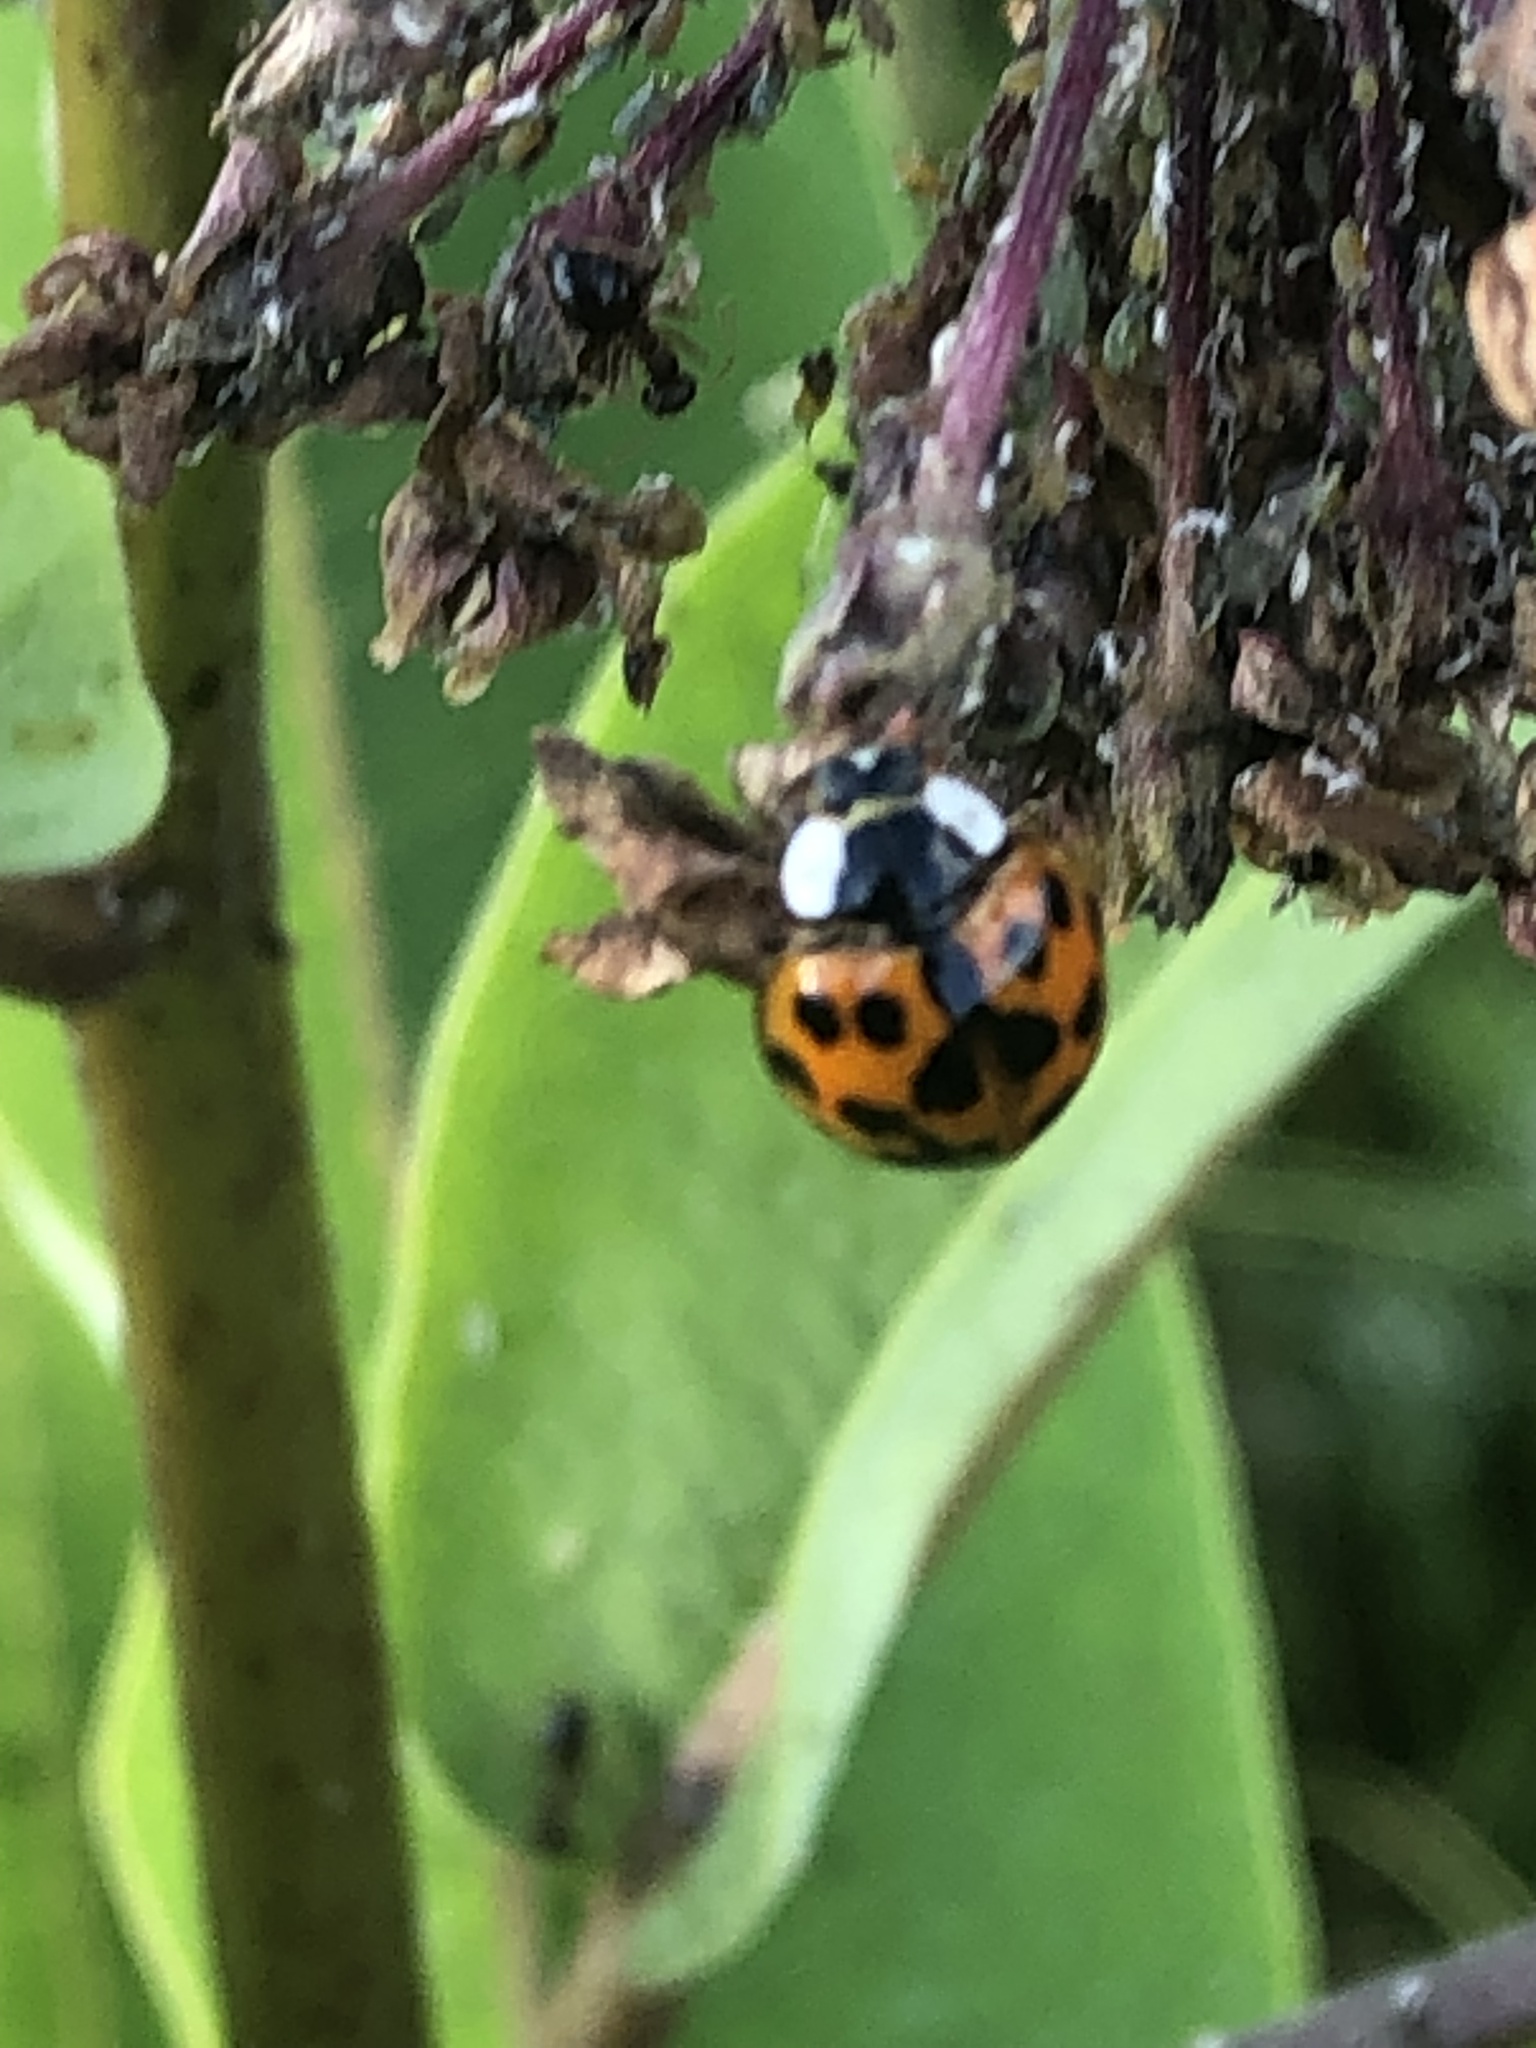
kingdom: Animalia
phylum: Arthropoda
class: Insecta
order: Coleoptera
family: Coccinellidae
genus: Harmonia
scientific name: Harmonia axyridis
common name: Harlequin ladybird
